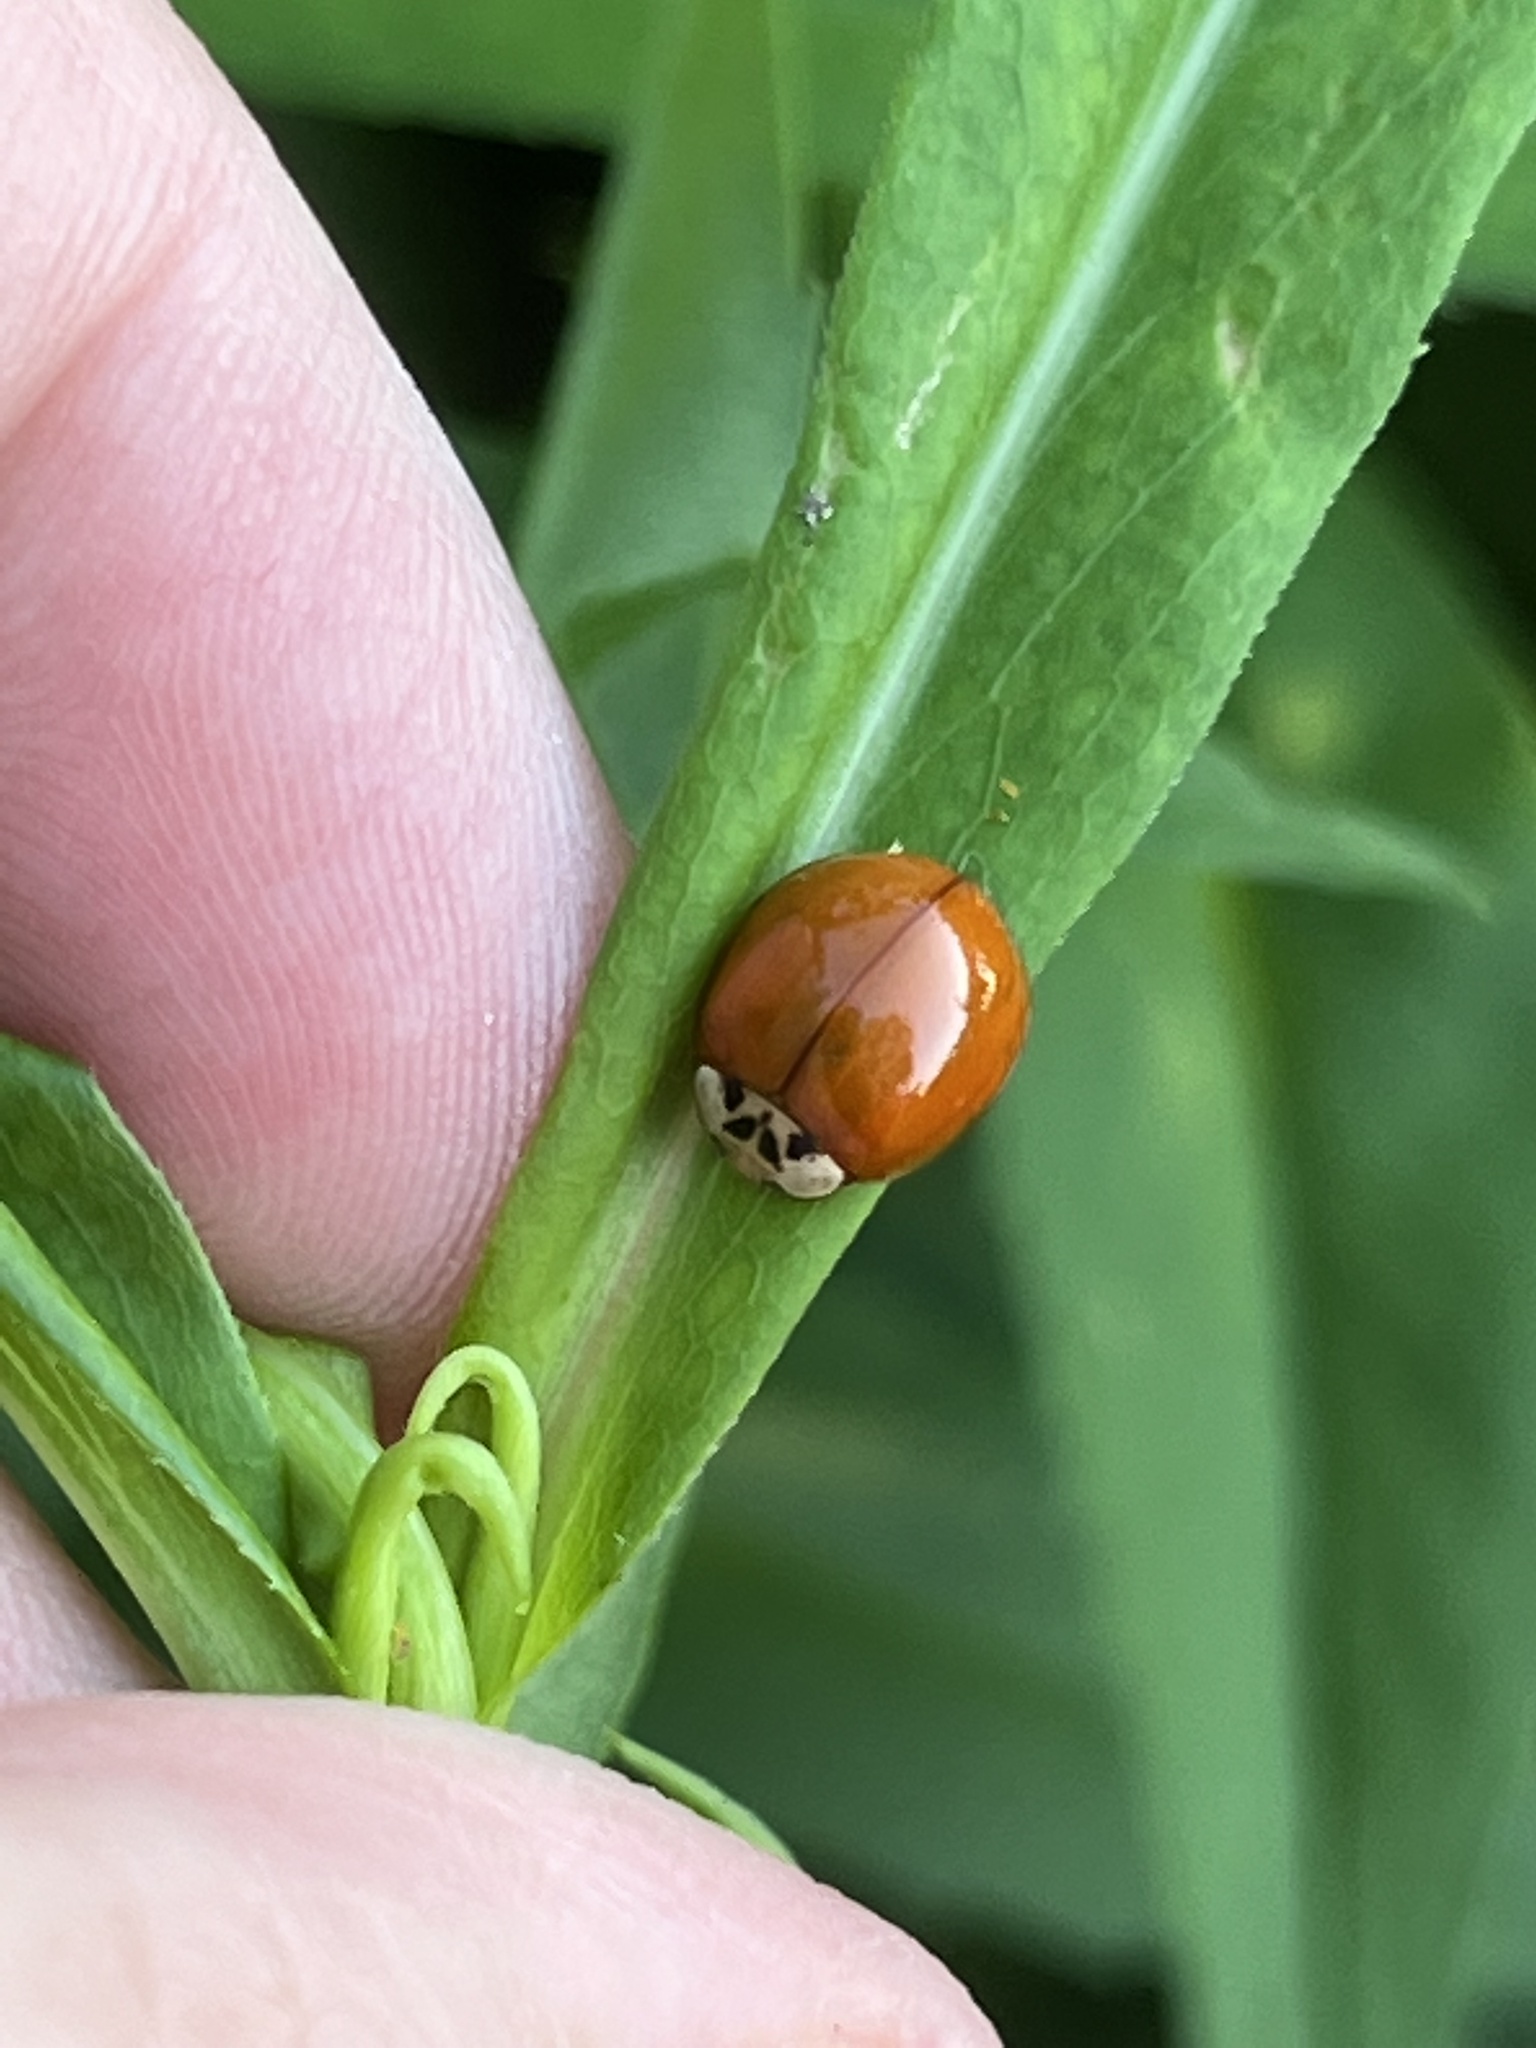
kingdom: Animalia
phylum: Arthropoda
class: Insecta
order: Coleoptera
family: Coccinellidae
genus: Harmonia
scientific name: Harmonia axyridis
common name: Harlequin ladybird
